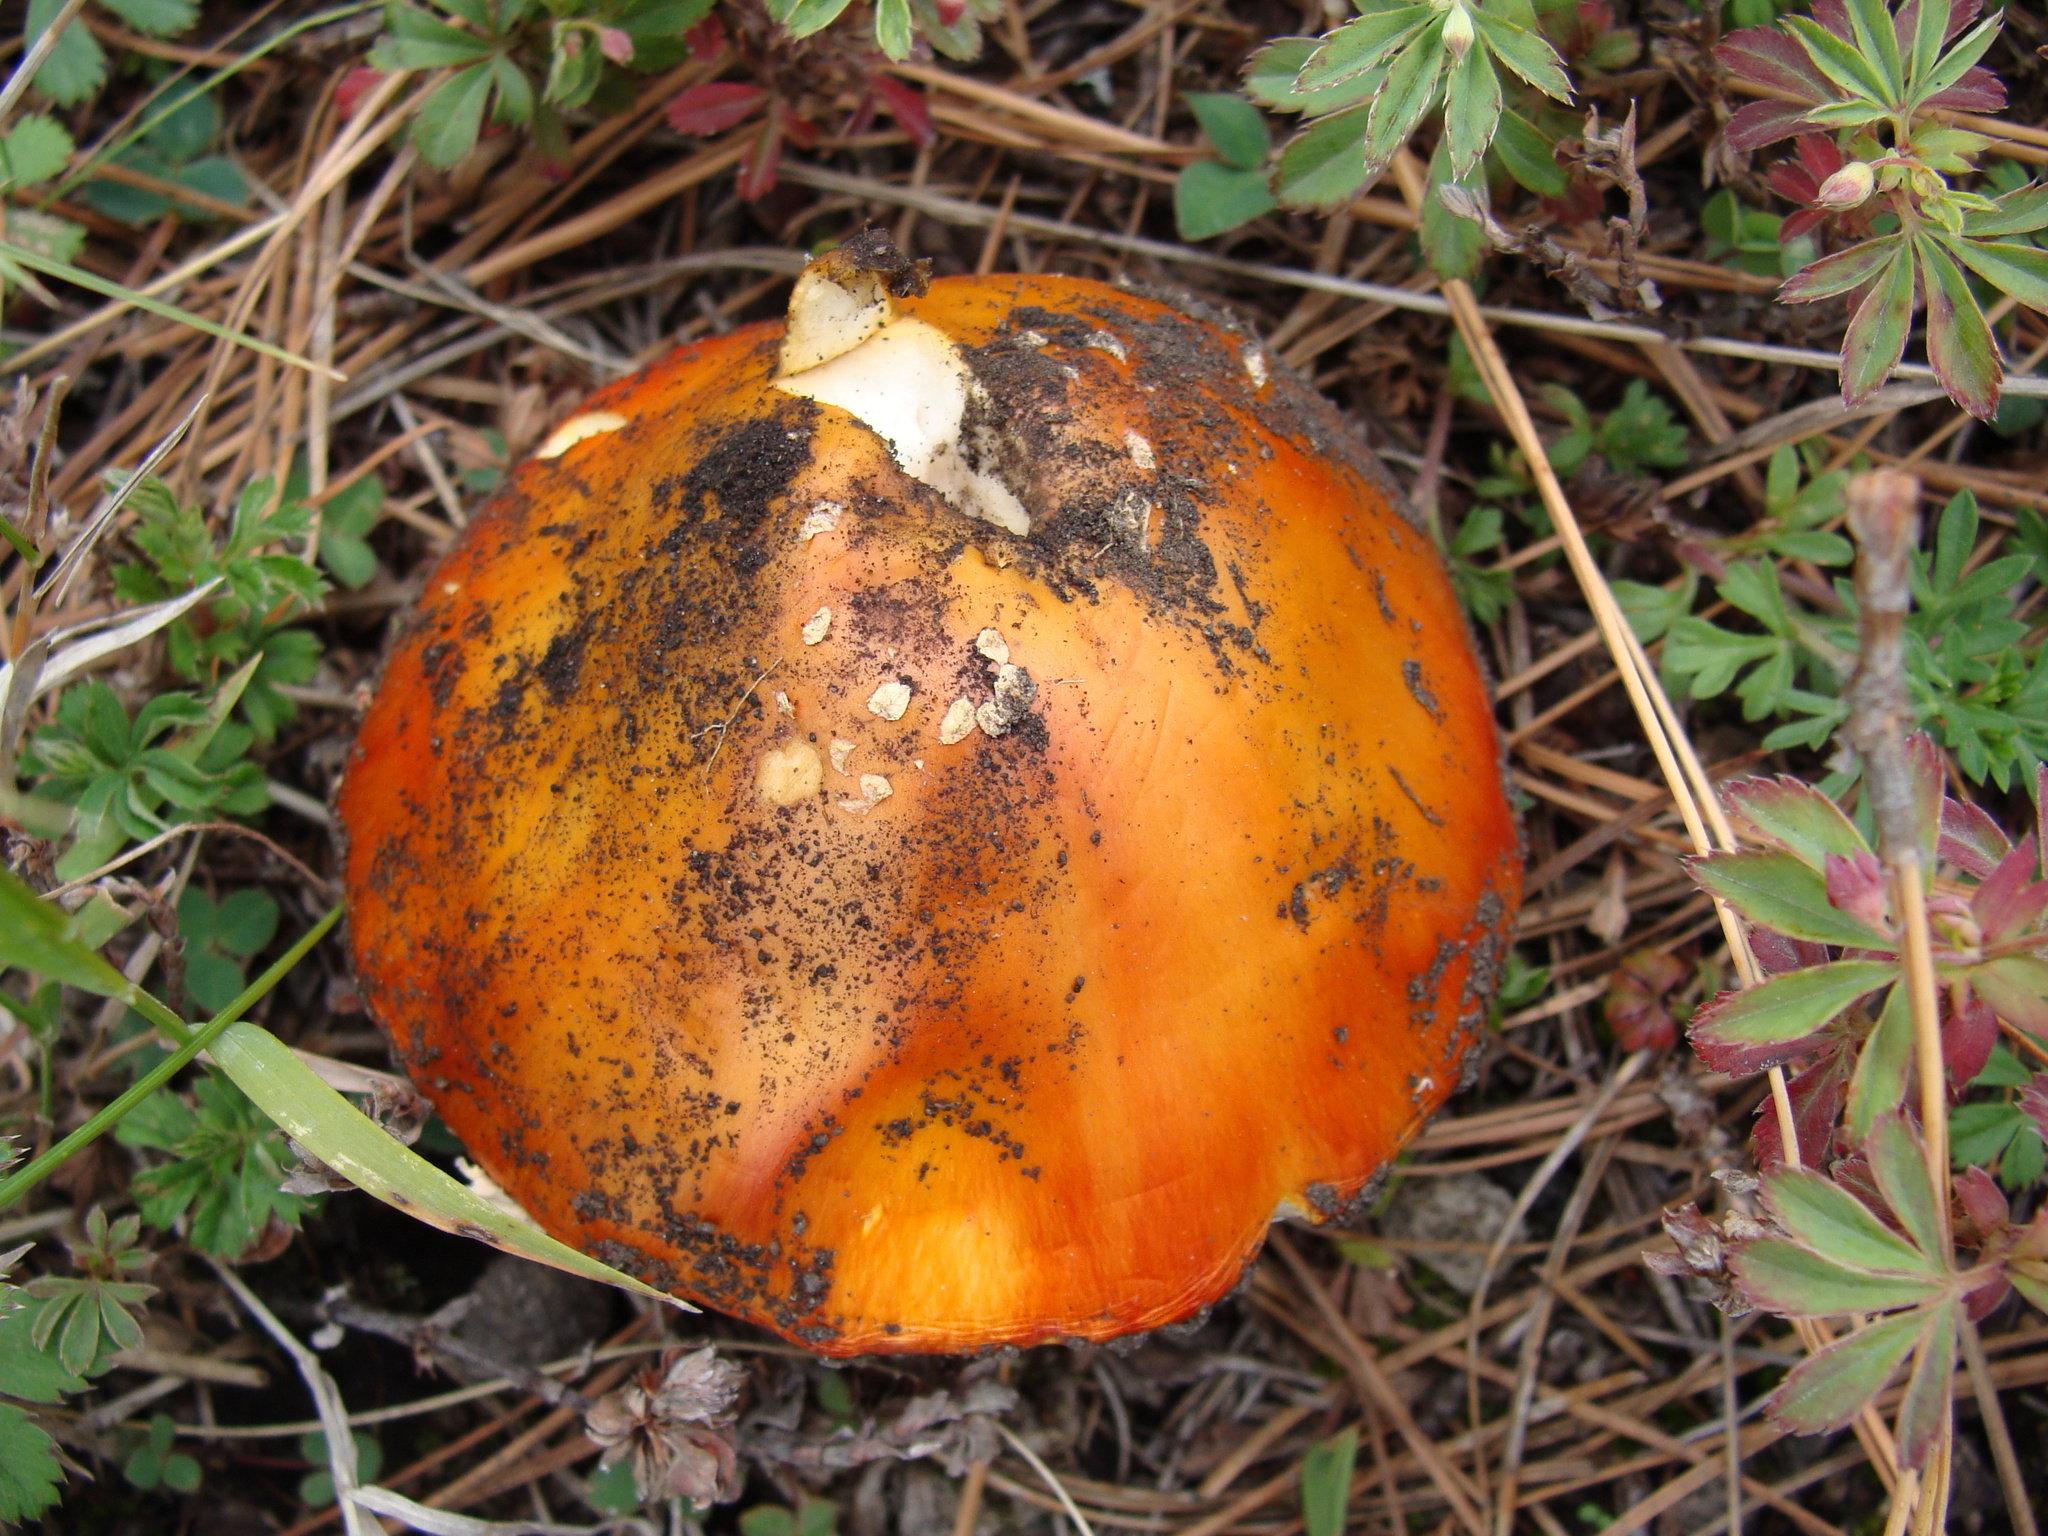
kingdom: Fungi
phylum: Basidiomycota
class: Agaricomycetes
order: Agaricales
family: Amanitaceae
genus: Amanita
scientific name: Amanita muscaria
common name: Fly agaric
